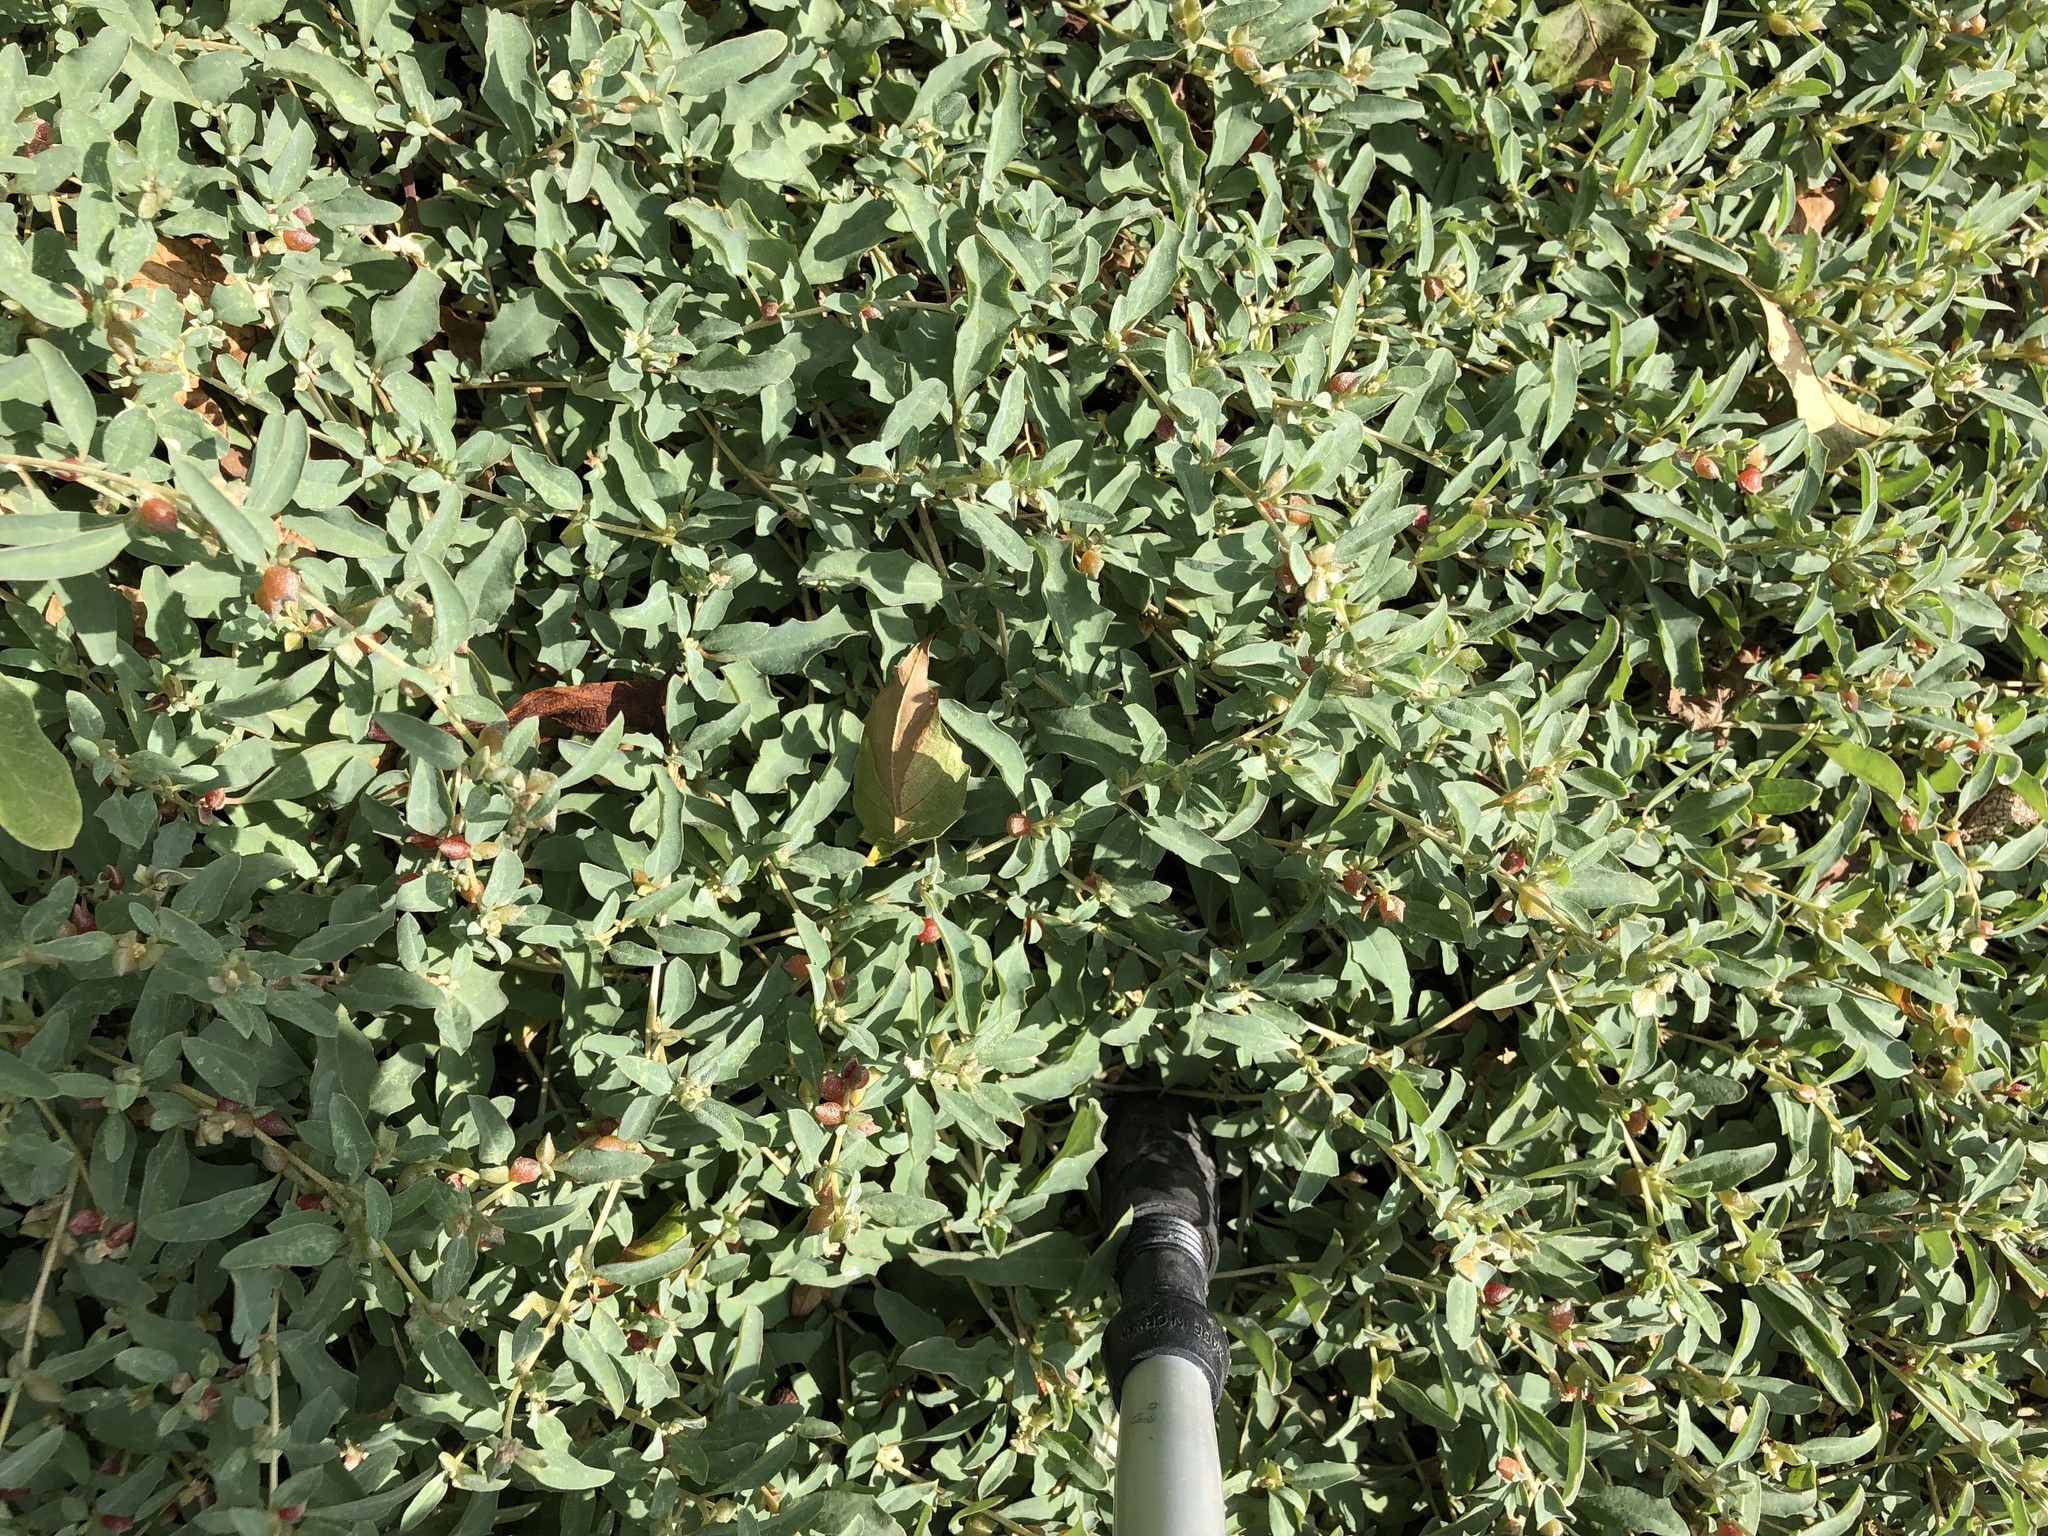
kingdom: Plantae
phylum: Tracheophyta
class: Magnoliopsida
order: Caryophyllales
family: Amaranthaceae
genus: Atriplex
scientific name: Atriplex semibaccata
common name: Australian saltbush
